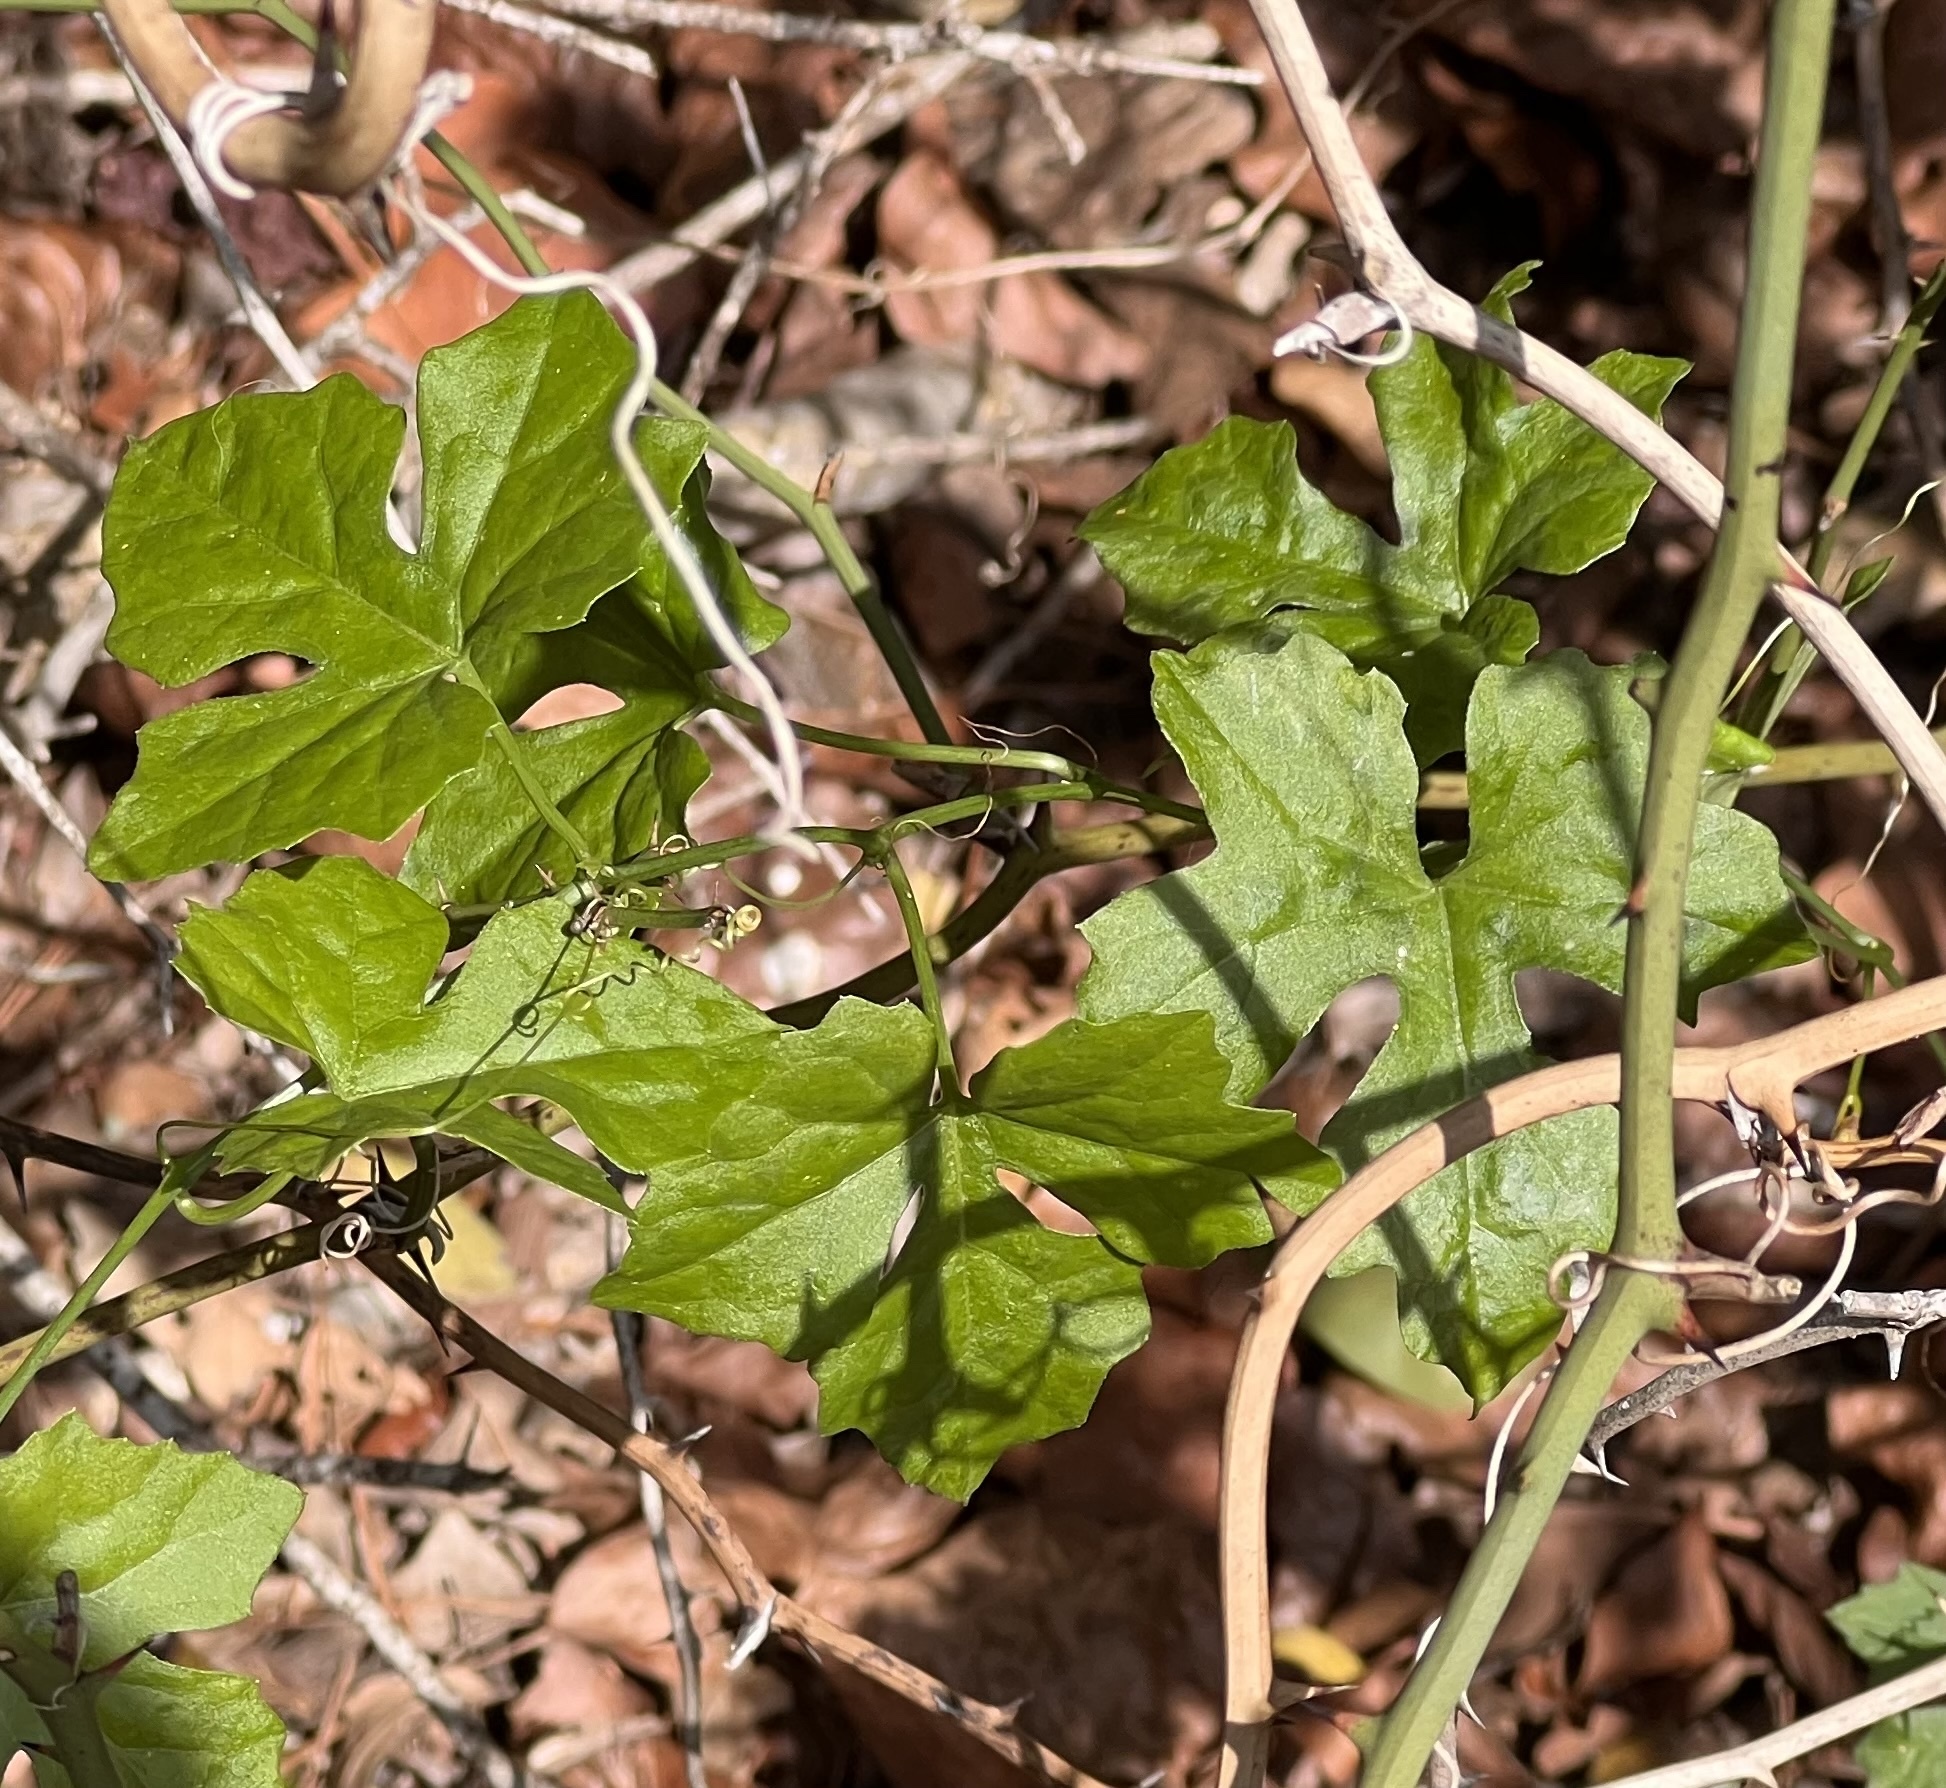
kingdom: Plantae
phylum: Tracheophyta
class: Magnoliopsida
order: Cucurbitales
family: Cucurbitaceae
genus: Ibervillea
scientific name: Ibervillea lindheimeri
